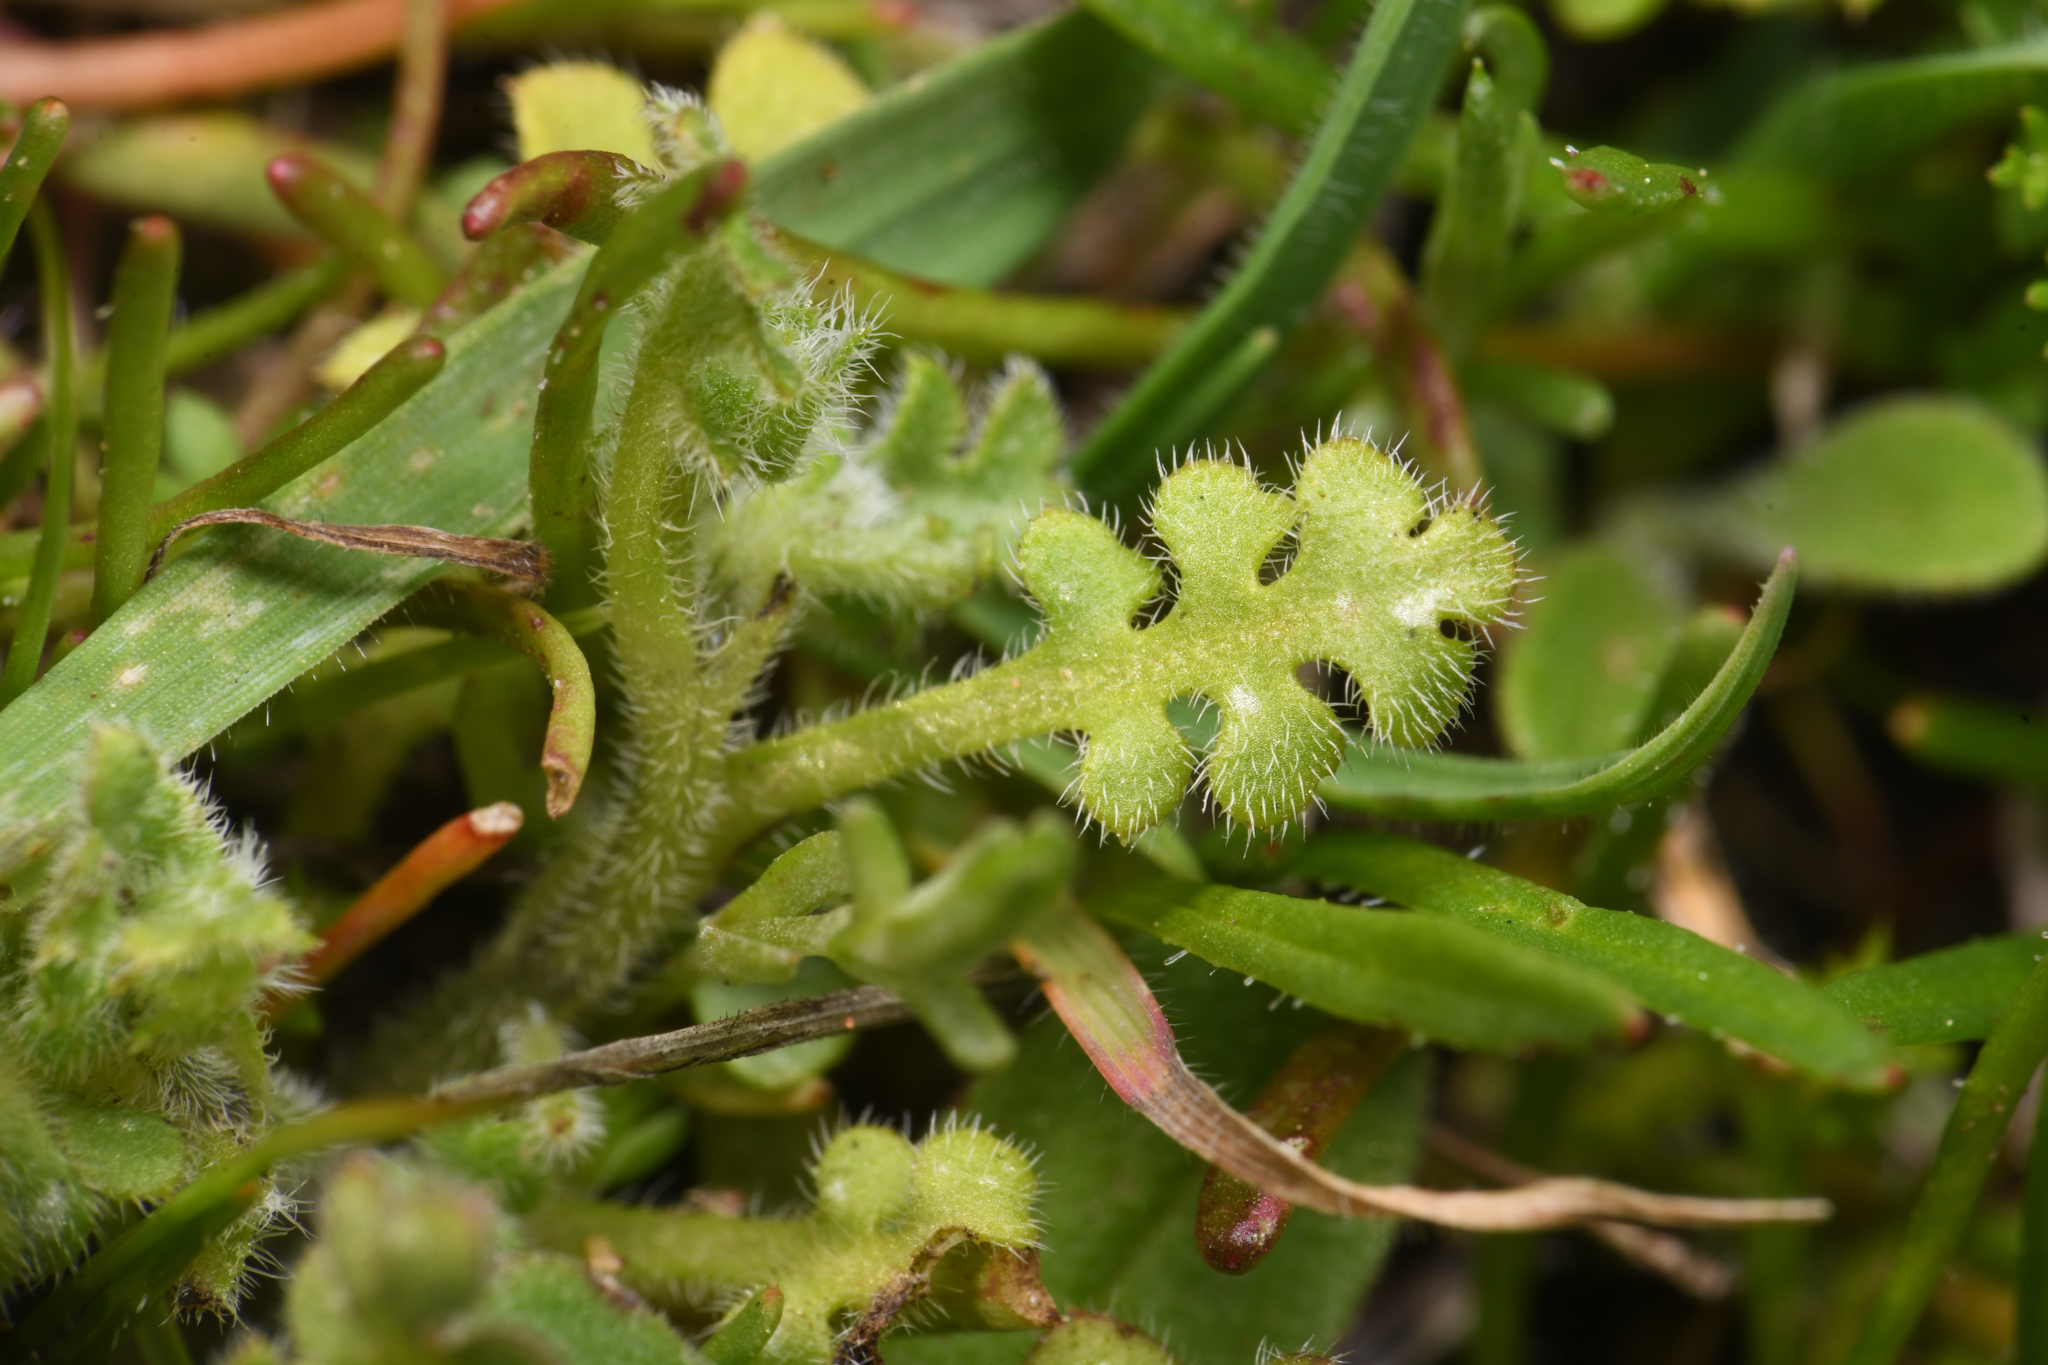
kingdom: Plantae
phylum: Tracheophyta
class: Magnoliopsida
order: Boraginales
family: Hydrophyllaceae
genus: Nemophila
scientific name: Nemophila menziesii
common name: Baby's-blue-eyes
